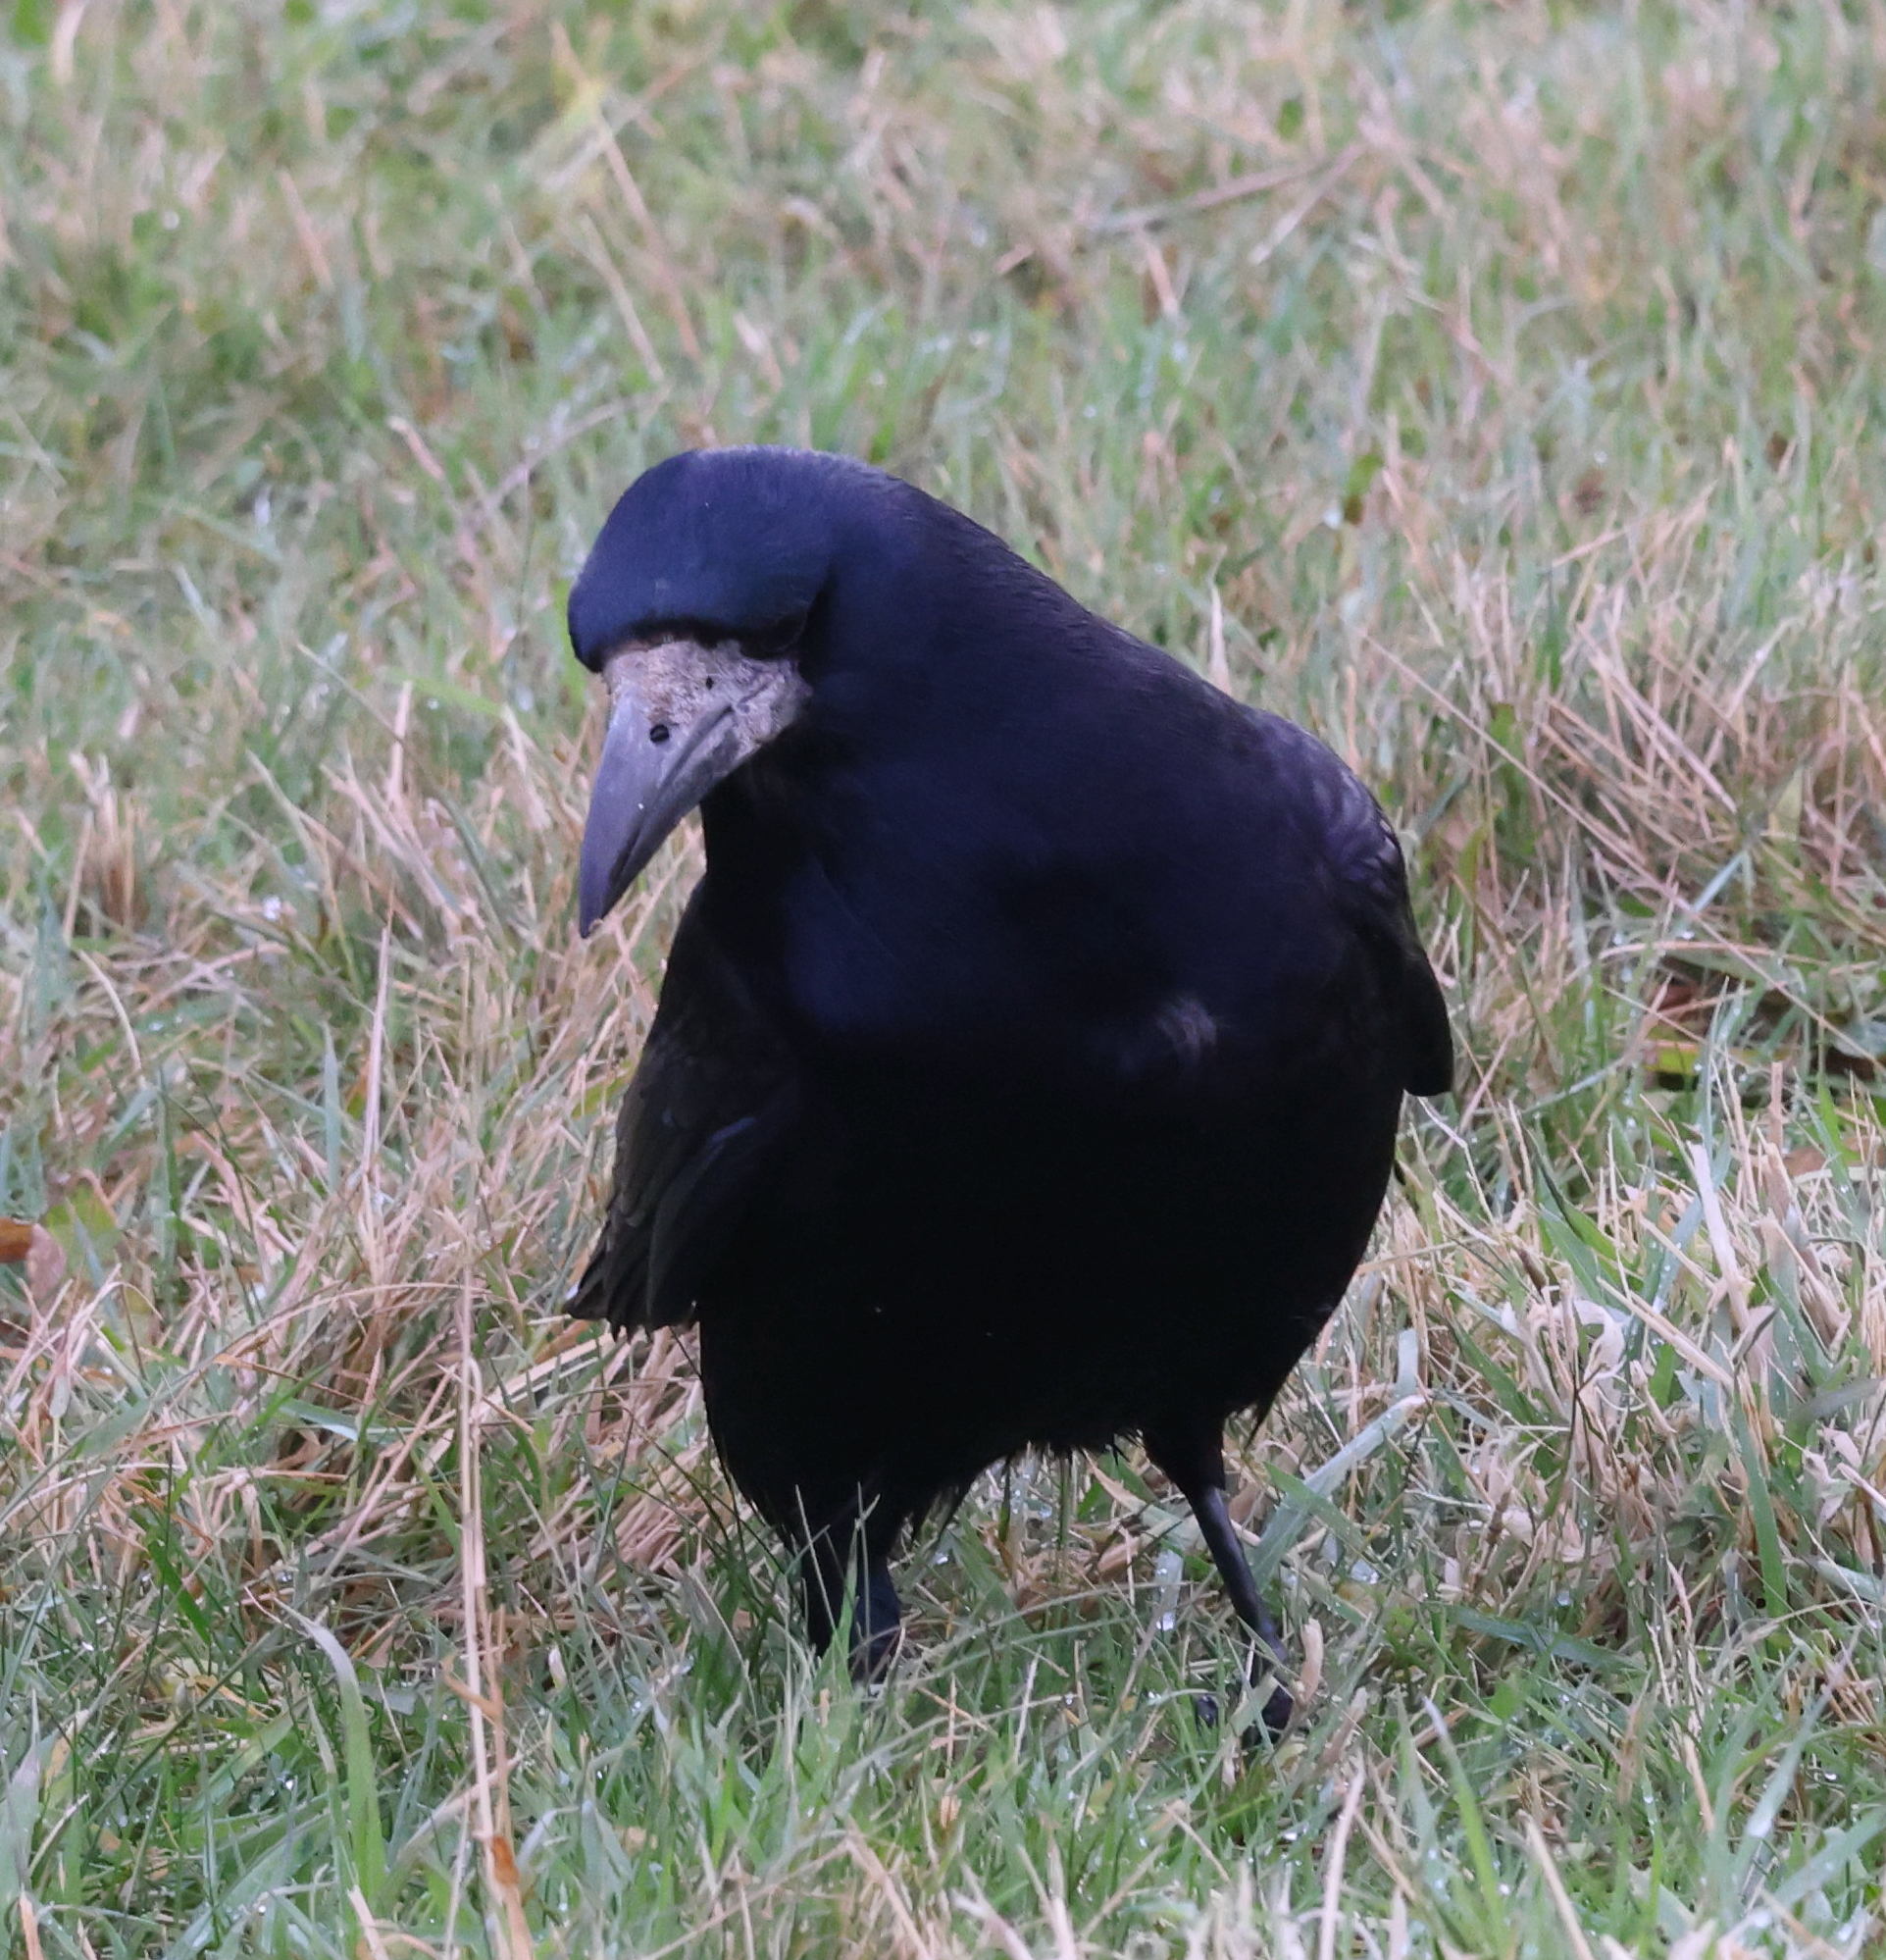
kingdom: Animalia
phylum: Chordata
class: Aves
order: Passeriformes
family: Corvidae
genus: Corvus
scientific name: Corvus frugilegus
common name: Rook
